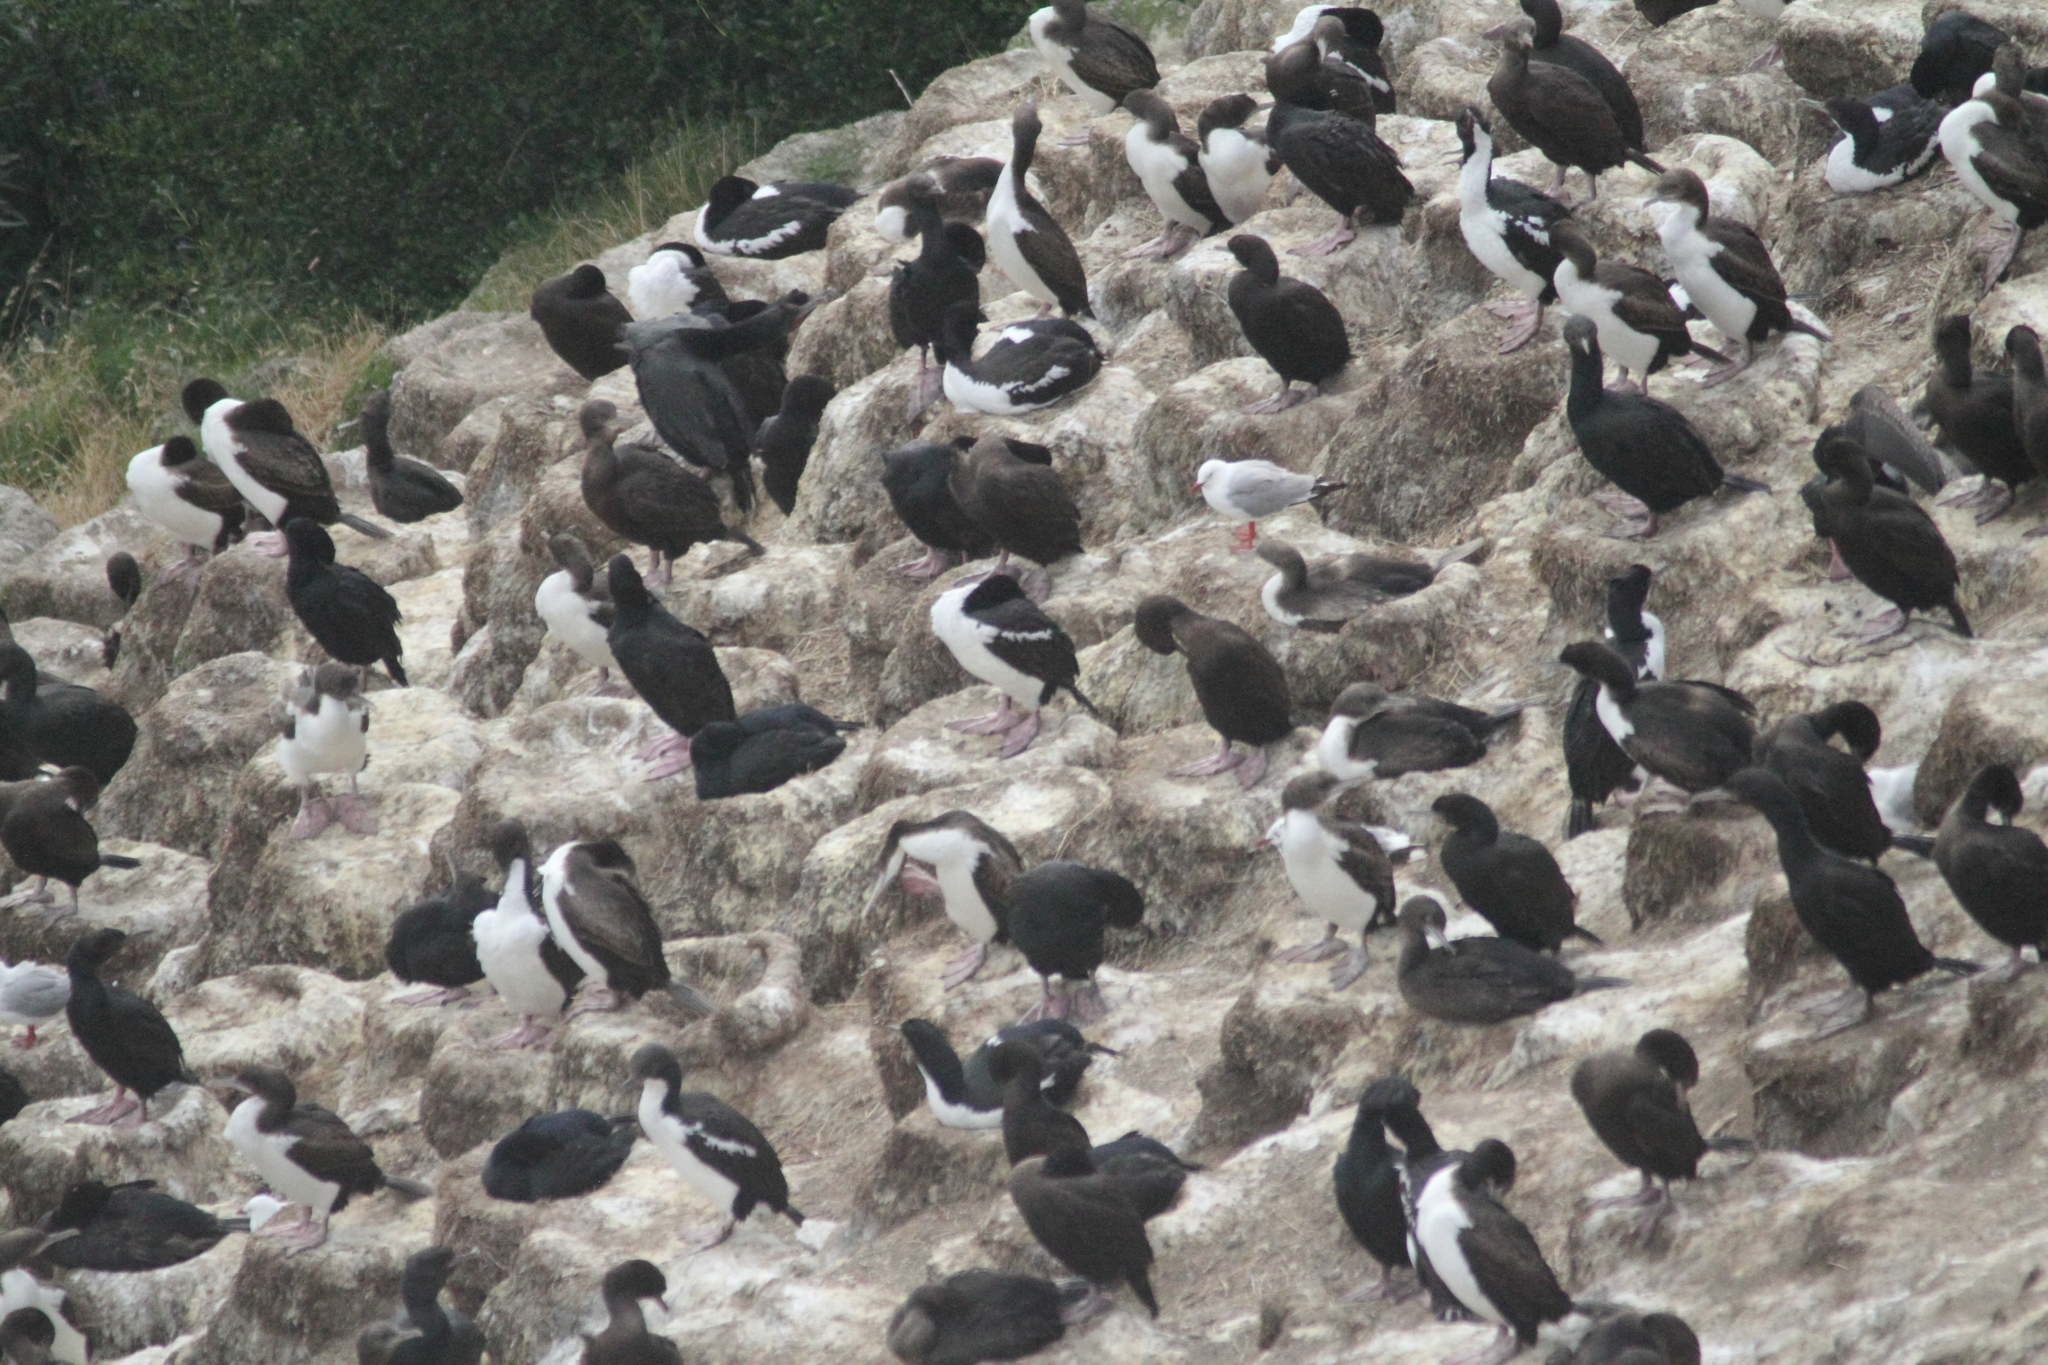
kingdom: Animalia
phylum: Chordata
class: Aves
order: Suliformes
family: Phalacrocoracidae
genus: Leucocarbo
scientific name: Leucocarbo chalconotus
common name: Stewart shag
